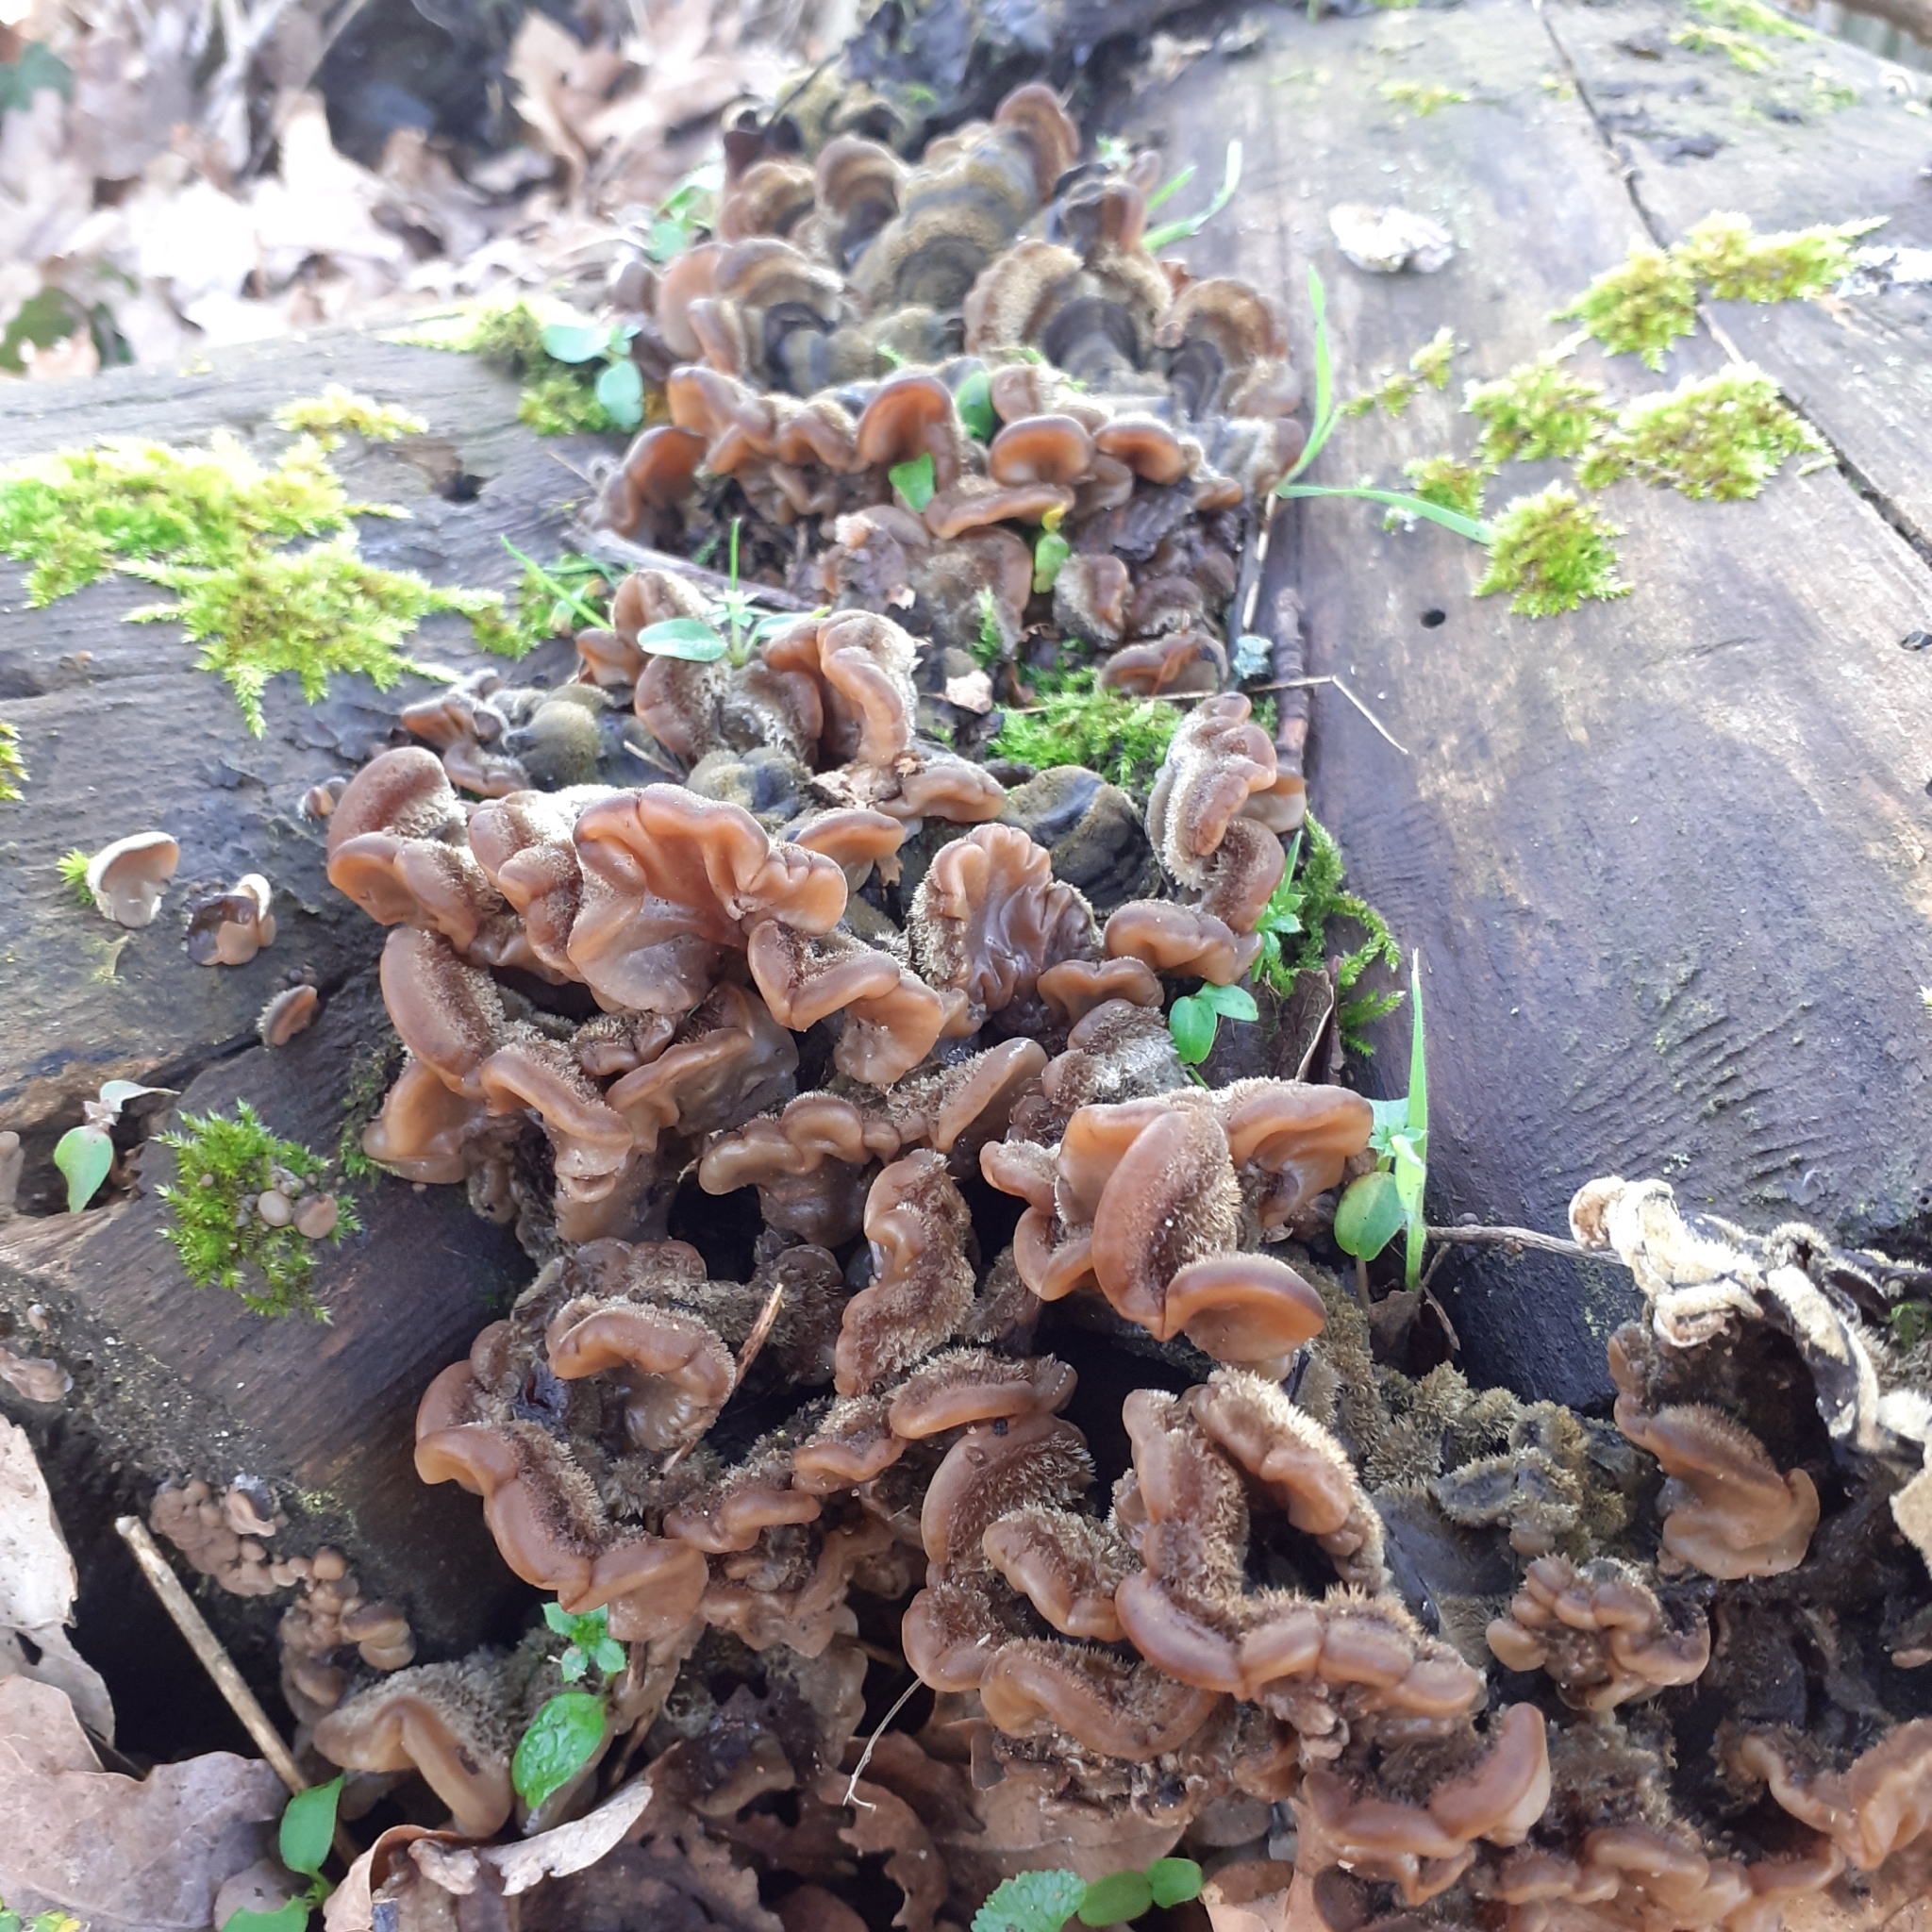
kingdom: Fungi
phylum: Basidiomycota
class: Agaricomycetes
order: Auriculariales
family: Auriculariaceae
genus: Auricularia
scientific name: Auricularia mesenterica
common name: Tripe fungus
